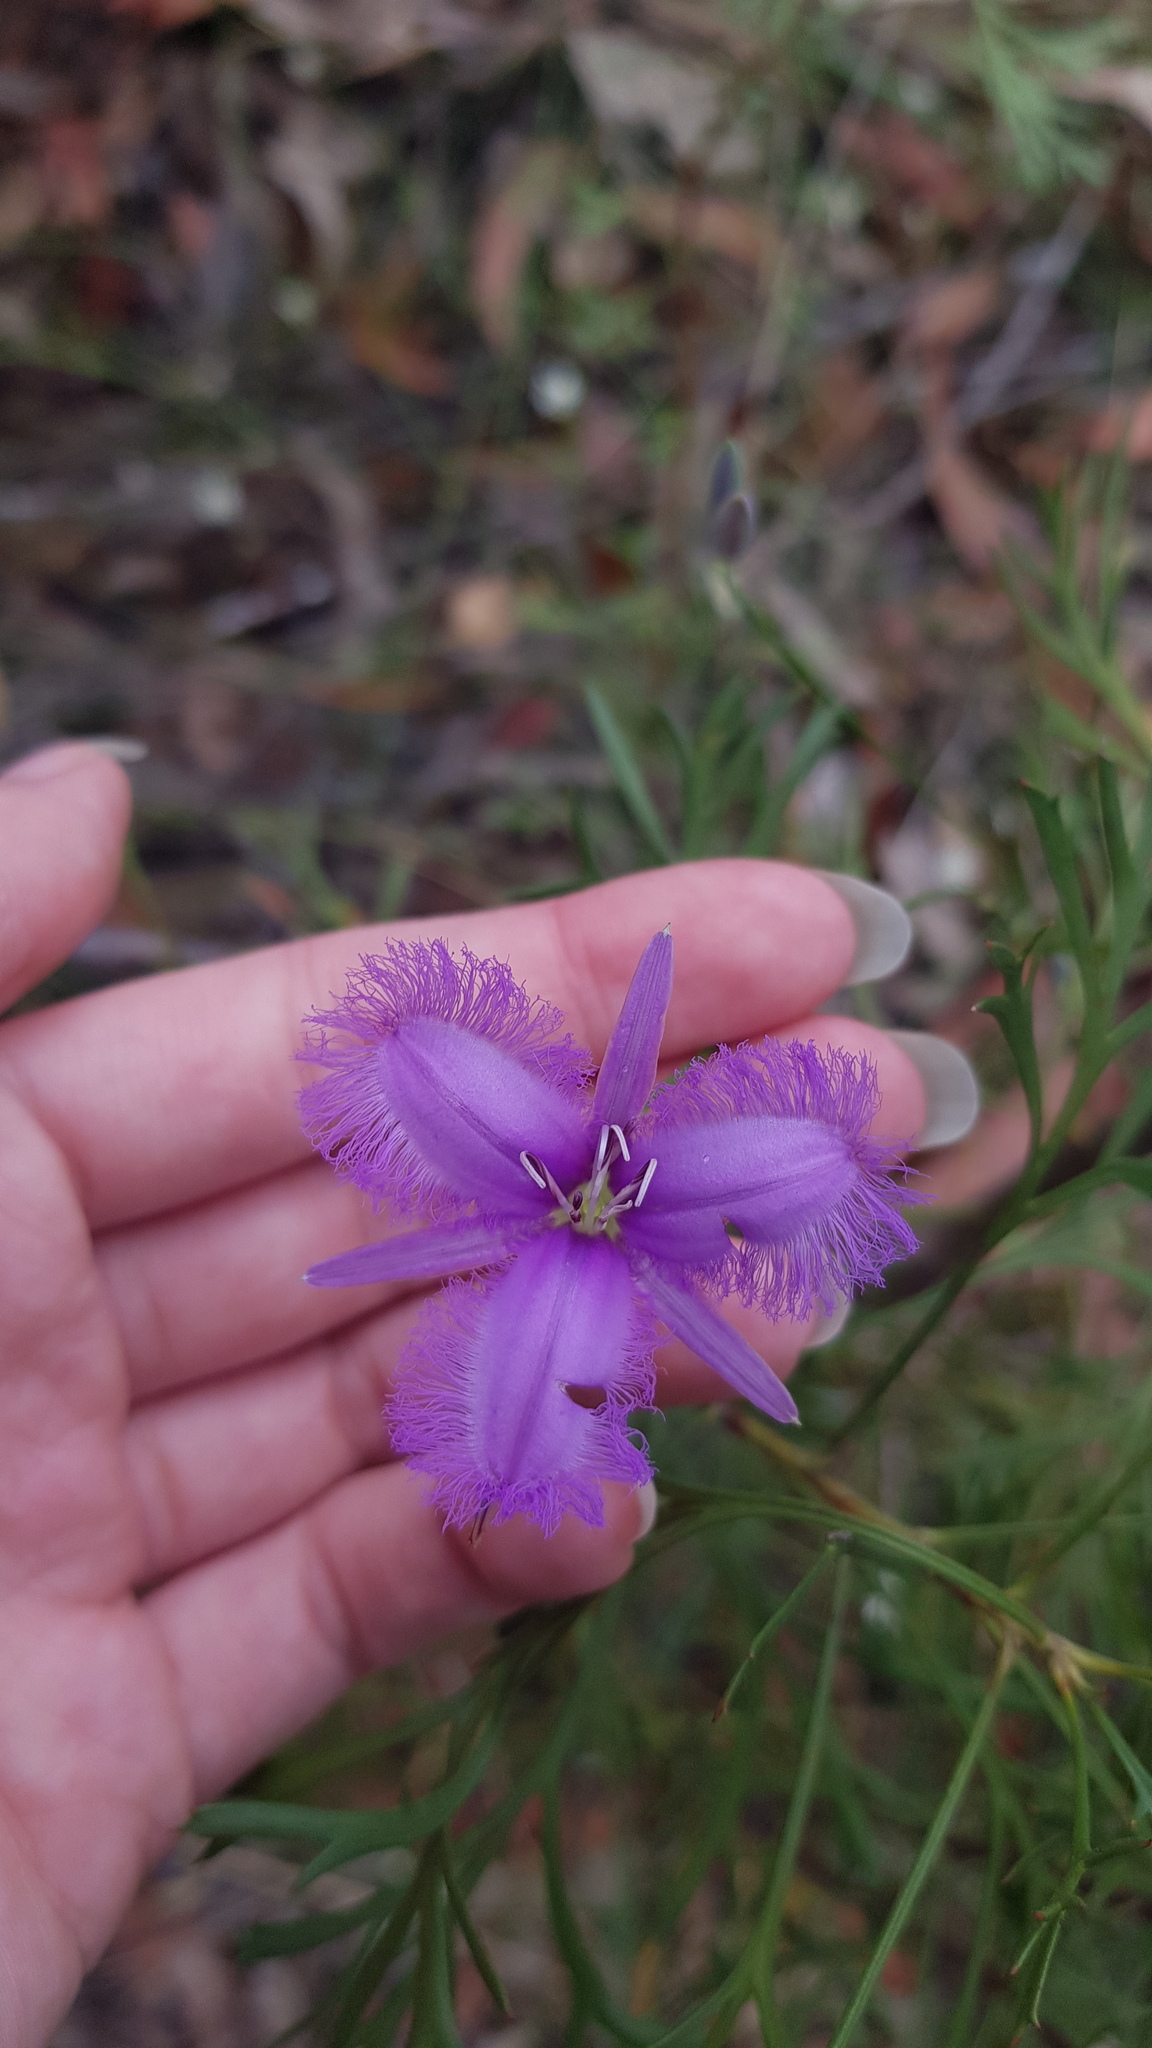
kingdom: Plantae
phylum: Tracheophyta
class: Liliopsida
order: Asparagales
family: Asparagaceae
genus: Thysanotus
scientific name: Thysanotus tuberosus
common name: Common fringed-lily
